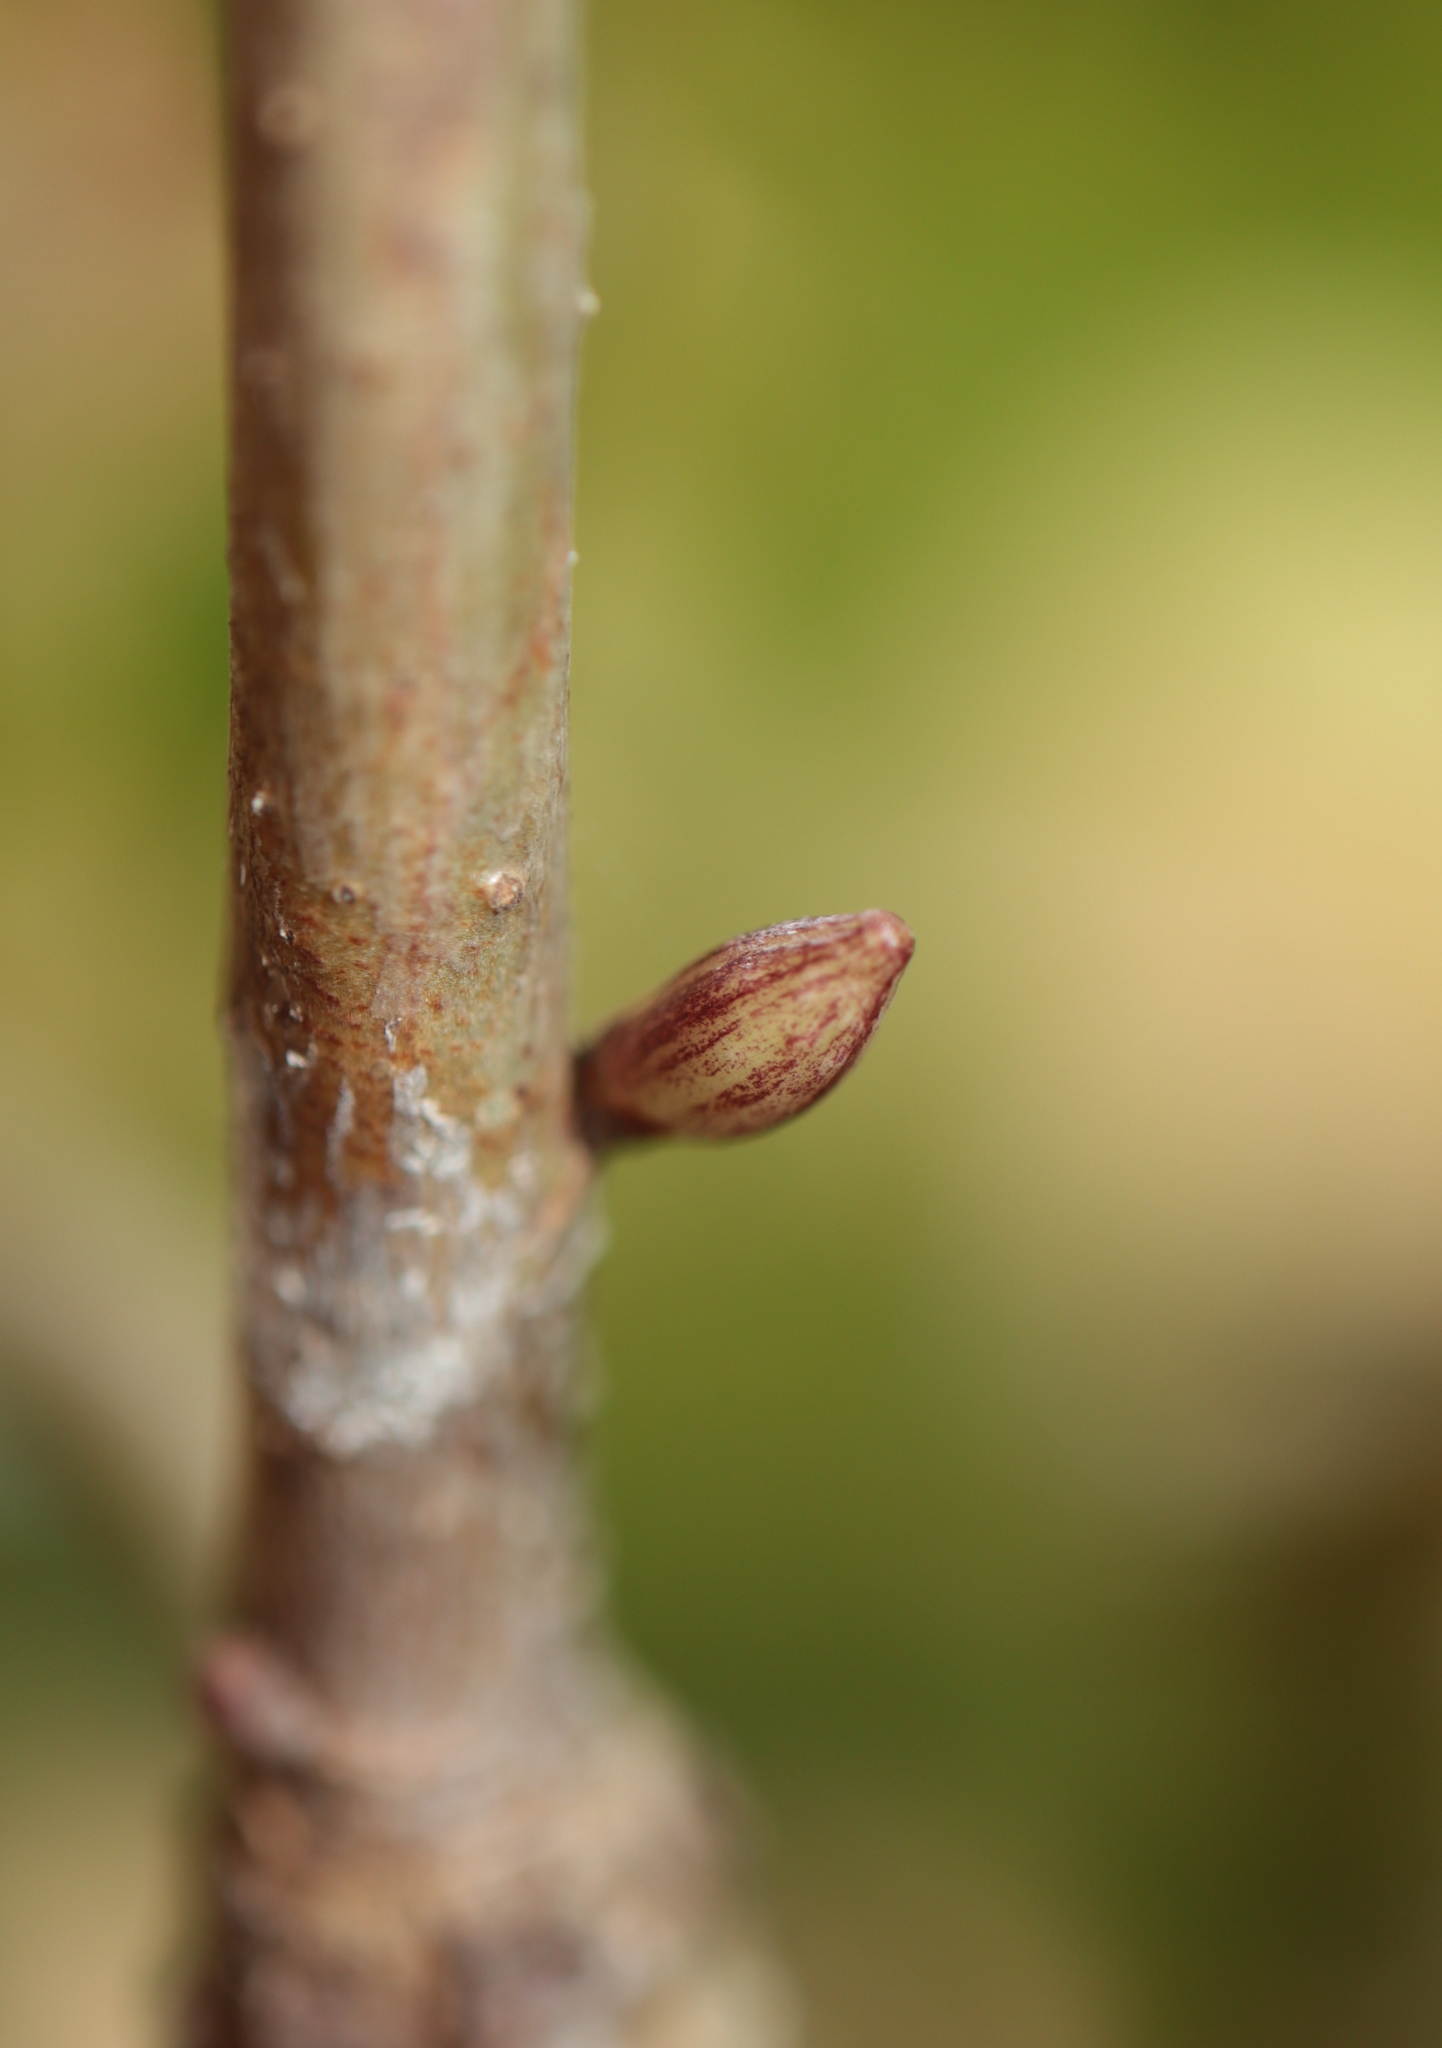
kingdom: Animalia
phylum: Arthropoda
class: Insecta
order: Hymenoptera
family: Cynipidae
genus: Andricus
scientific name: Andricus
